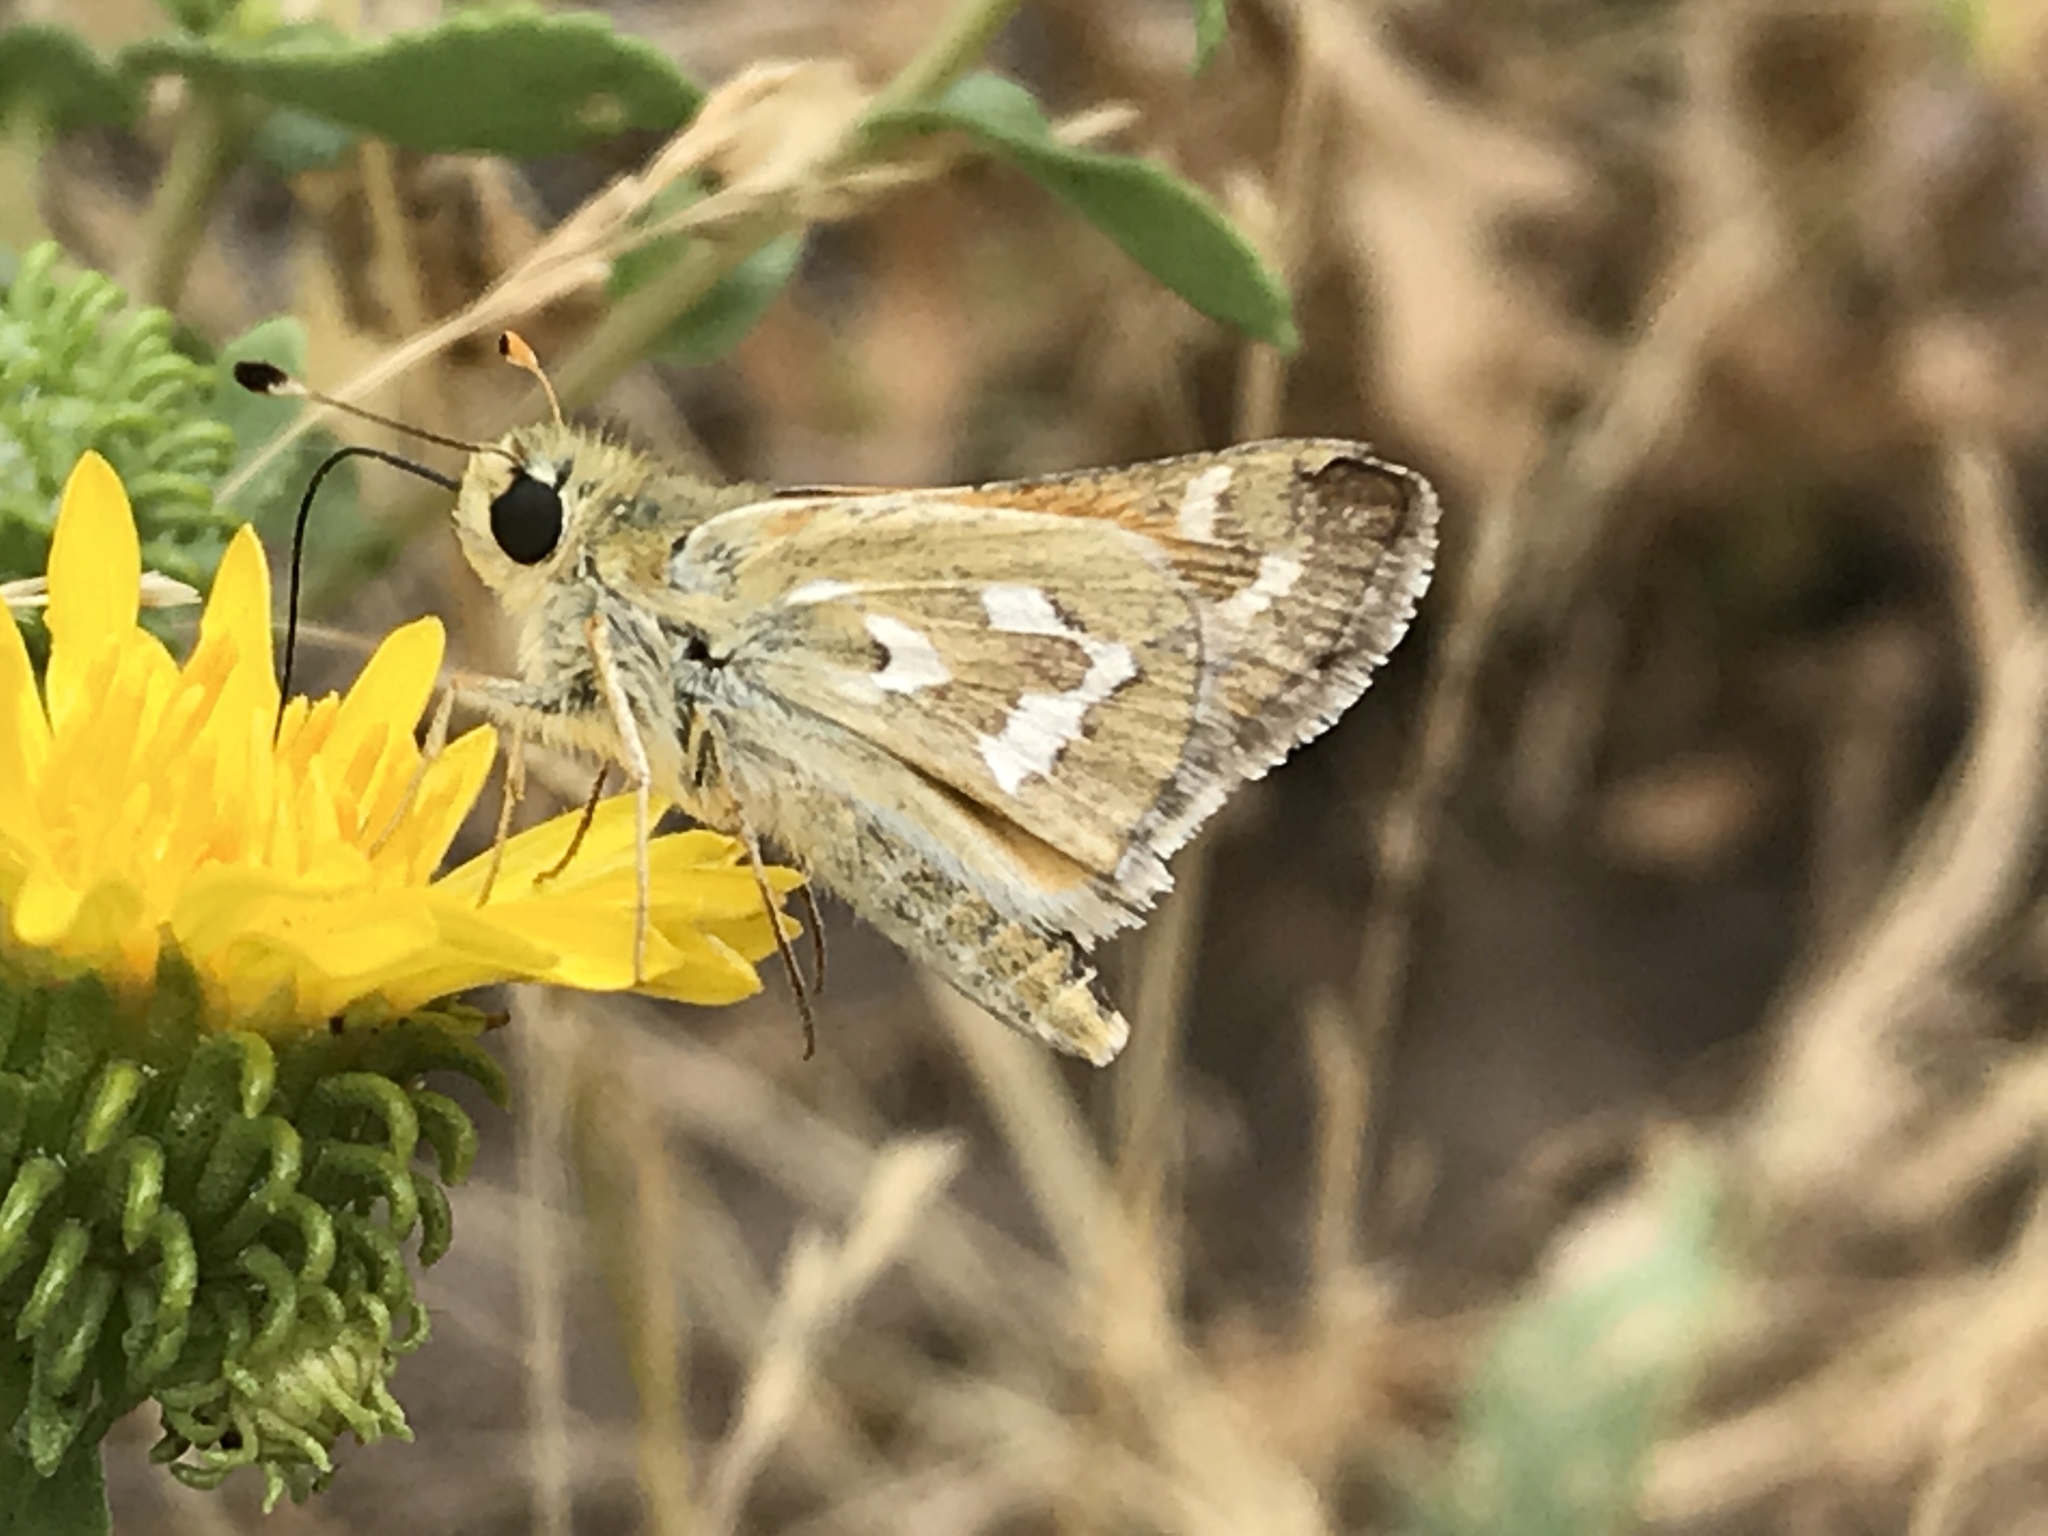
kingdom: Animalia
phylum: Arthropoda
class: Insecta
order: Lepidoptera
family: Hesperiidae
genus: Hesperia
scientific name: Hesperia comma
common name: Common branded skipper
